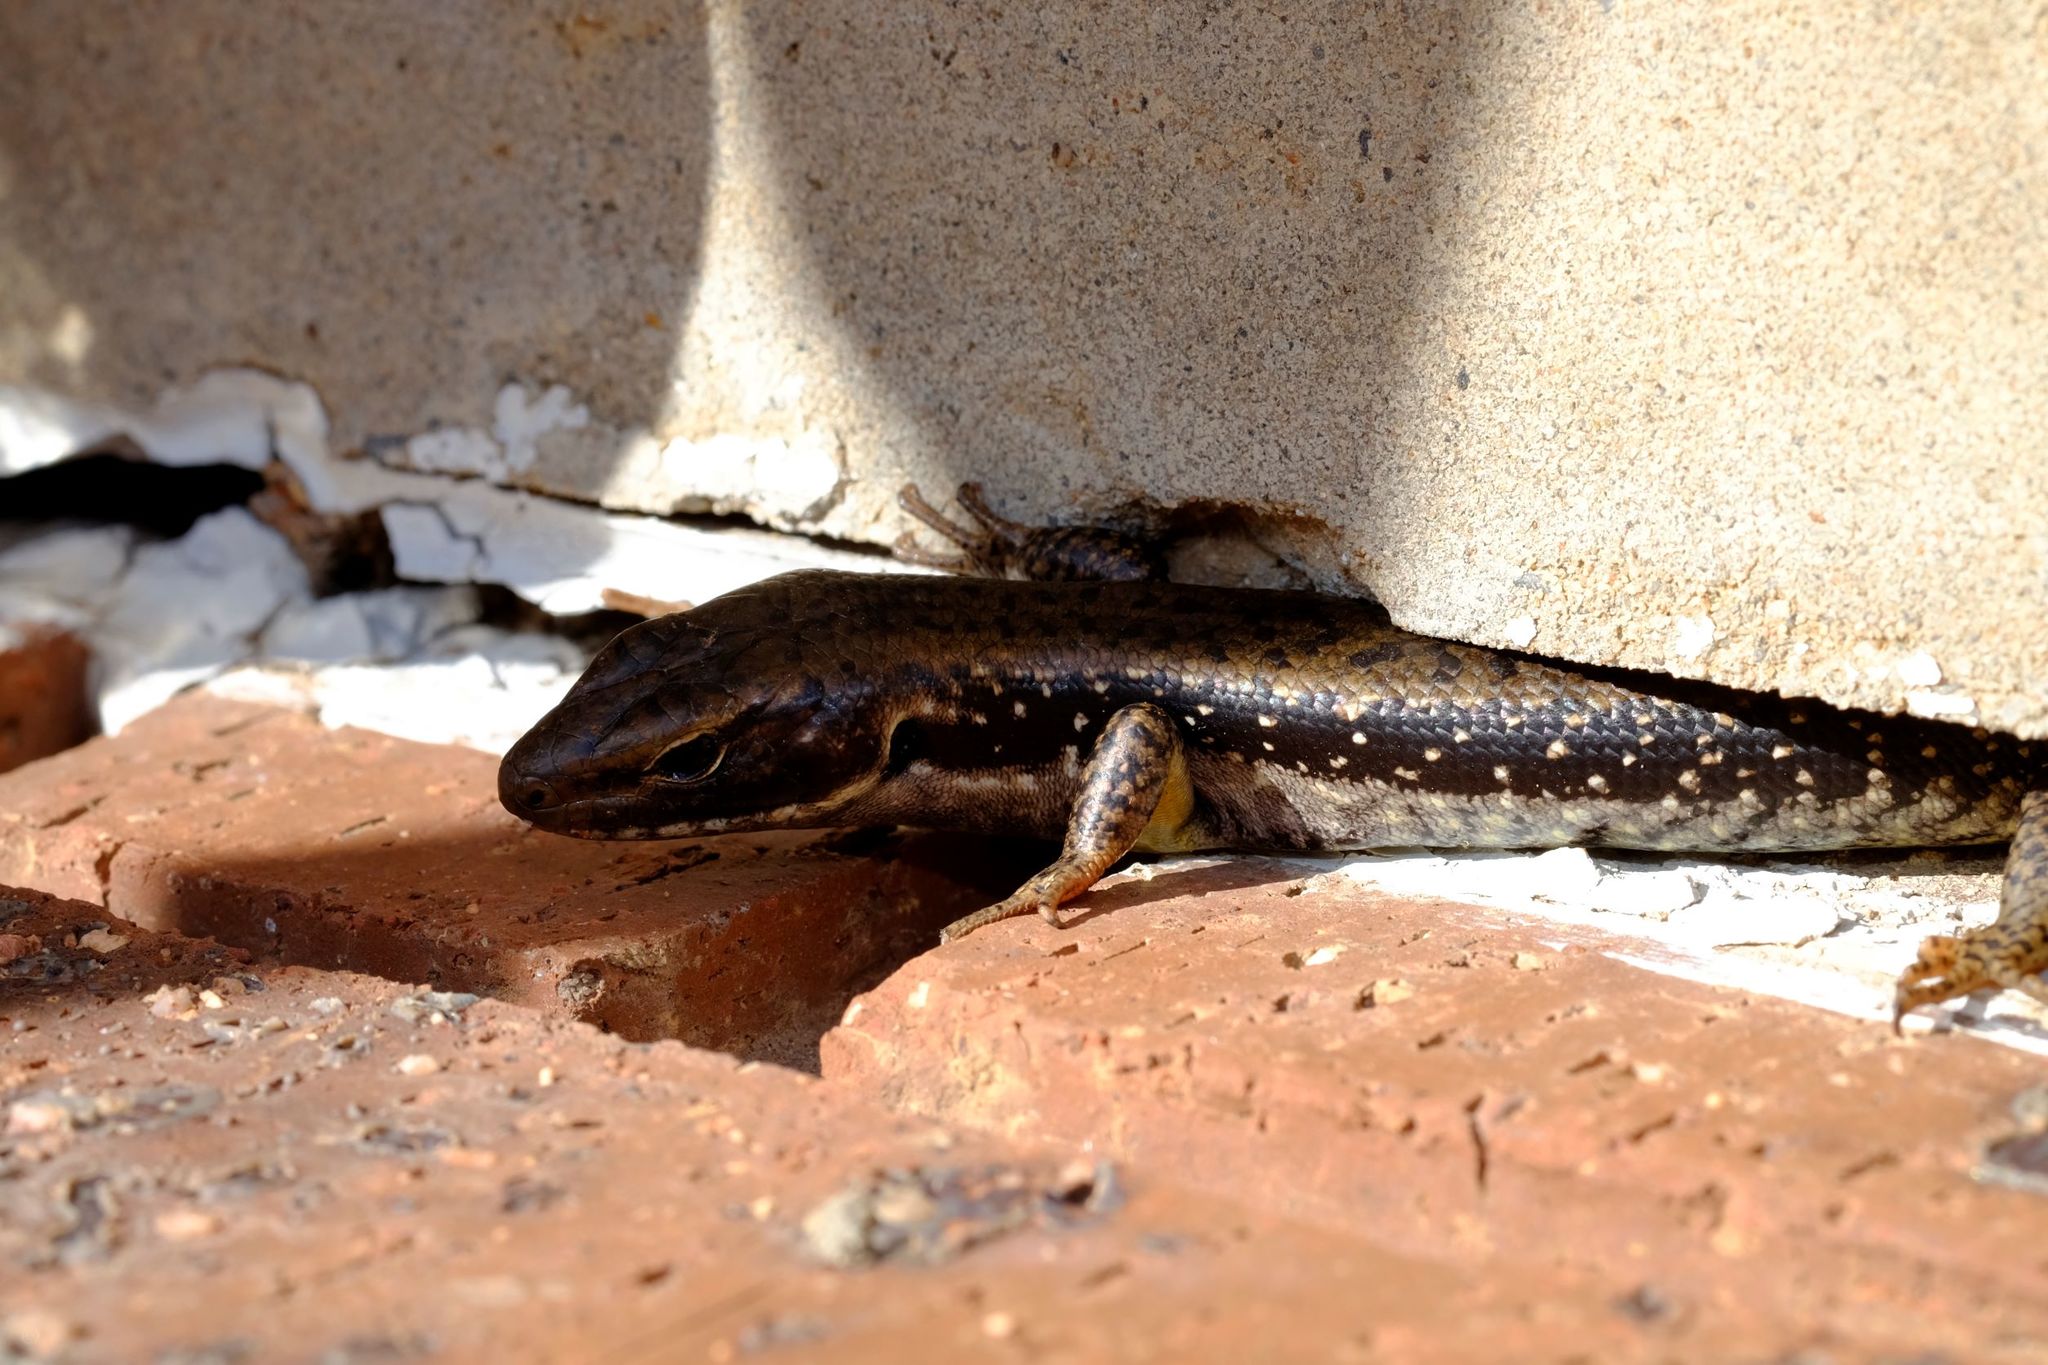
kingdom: Animalia
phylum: Chordata
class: Squamata
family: Scincidae
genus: Eulamprus
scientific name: Eulamprus tympanum
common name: Cool-temperate water-skink
